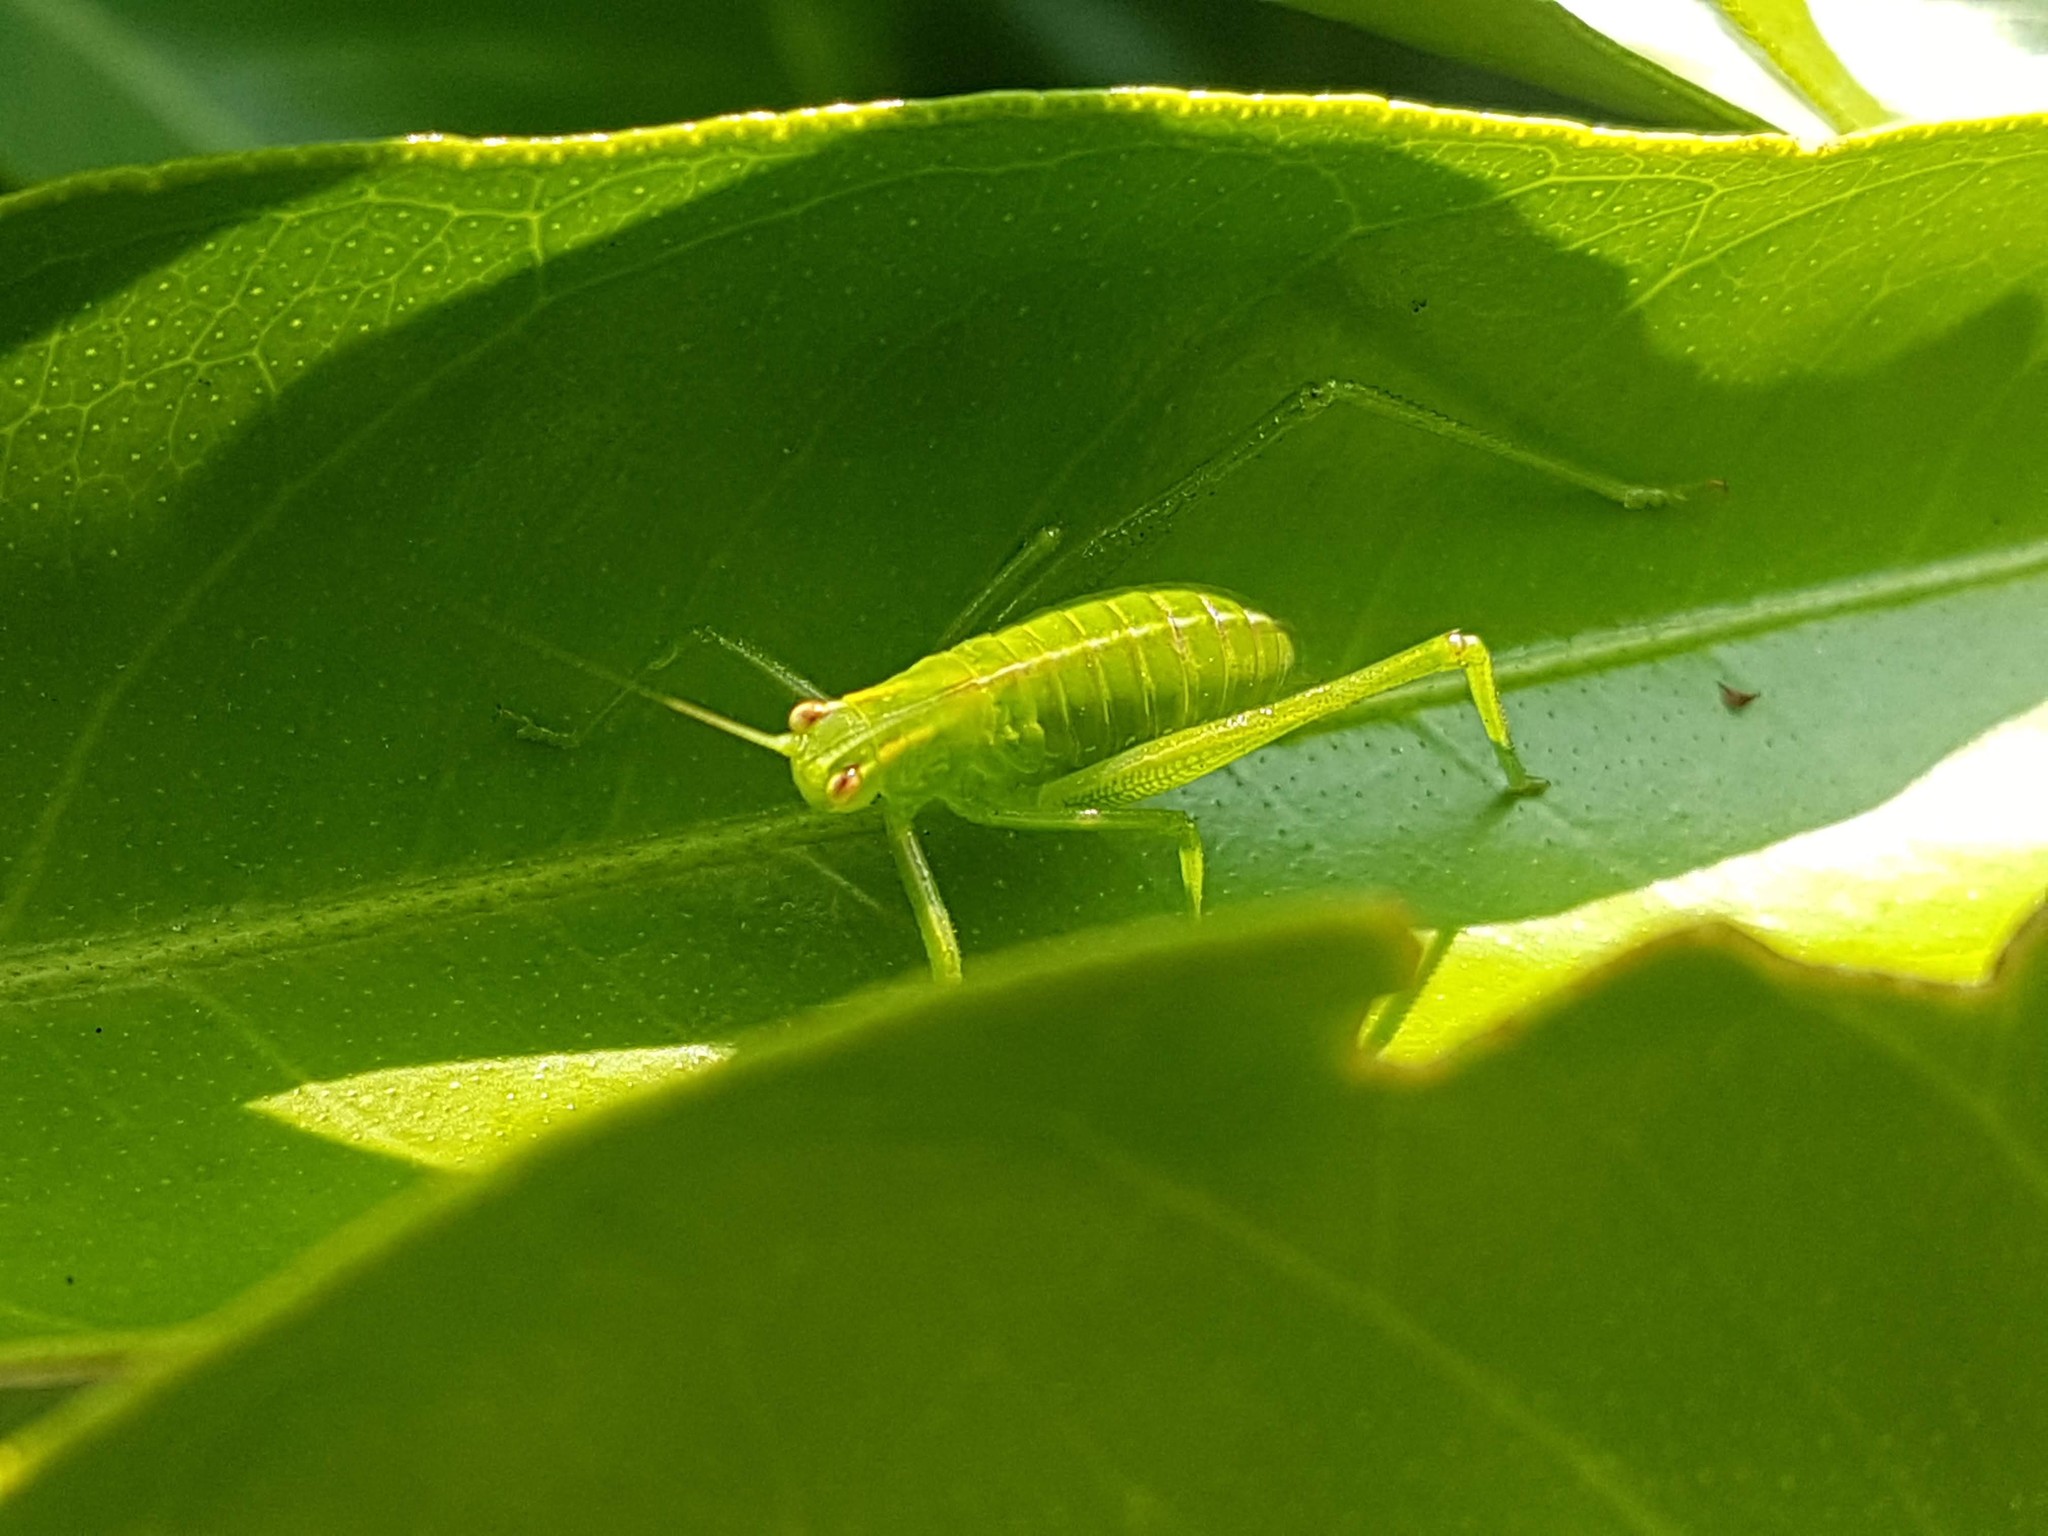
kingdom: Animalia
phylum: Arthropoda
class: Insecta
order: Orthoptera
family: Tettigoniidae
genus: Caedicia
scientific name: Caedicia simplex
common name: Common garden katydid
